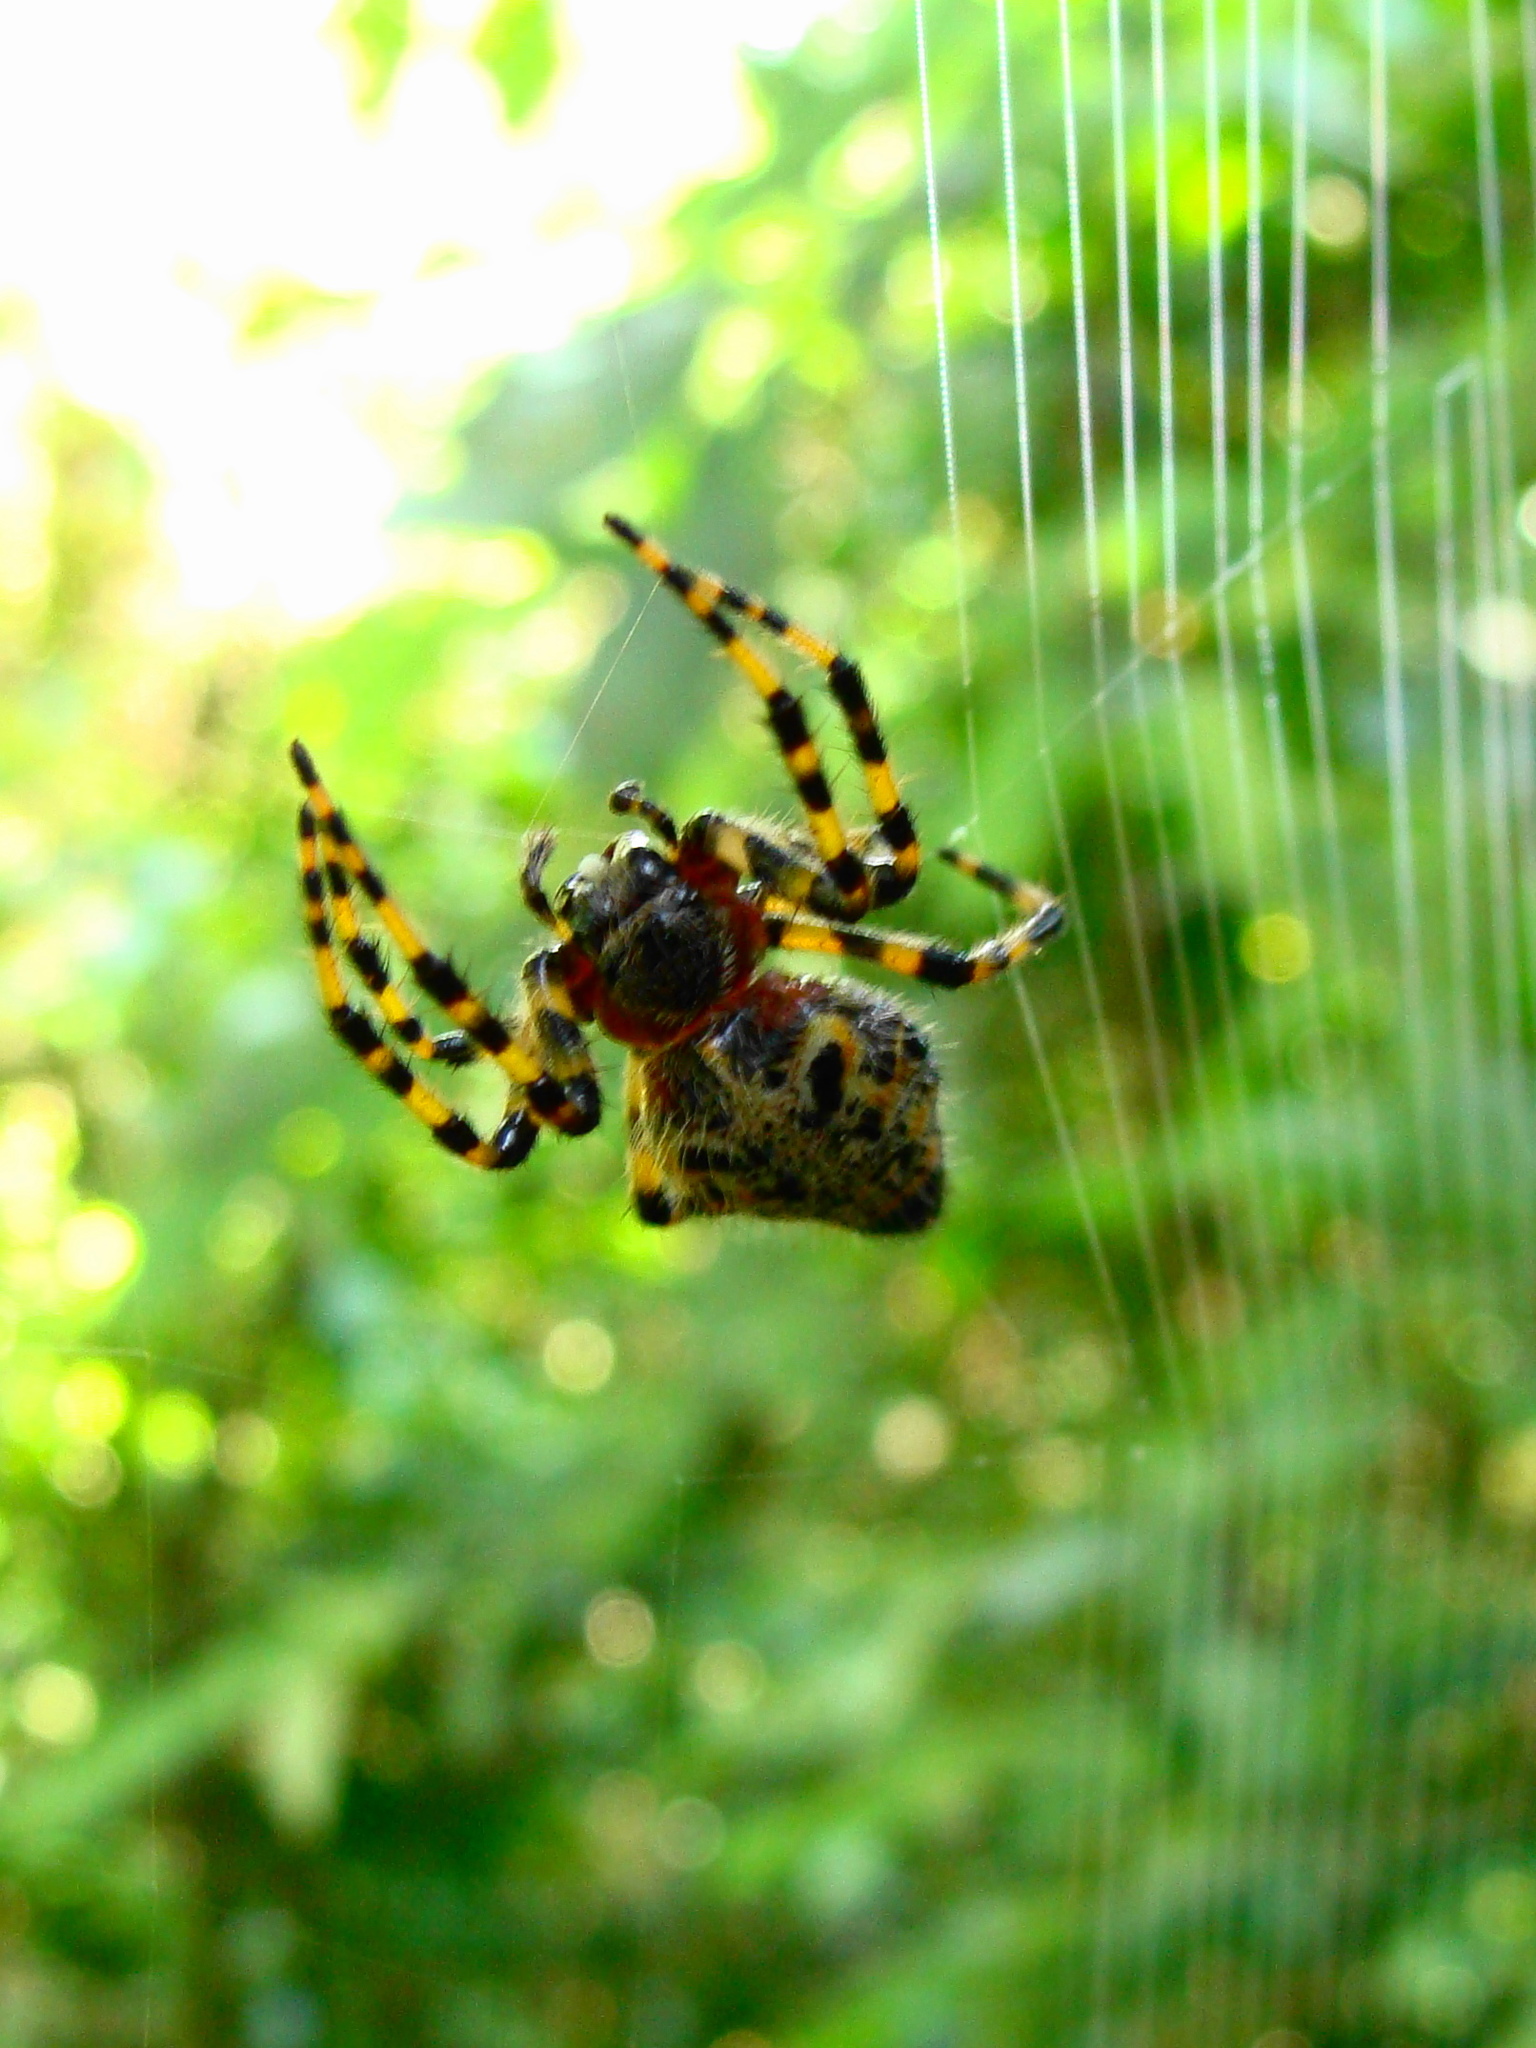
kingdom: Animalia
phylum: Arthropoda
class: Arachnida
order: Araneae
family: Araneidae
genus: Alpaida
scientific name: Alpaida alticeps
